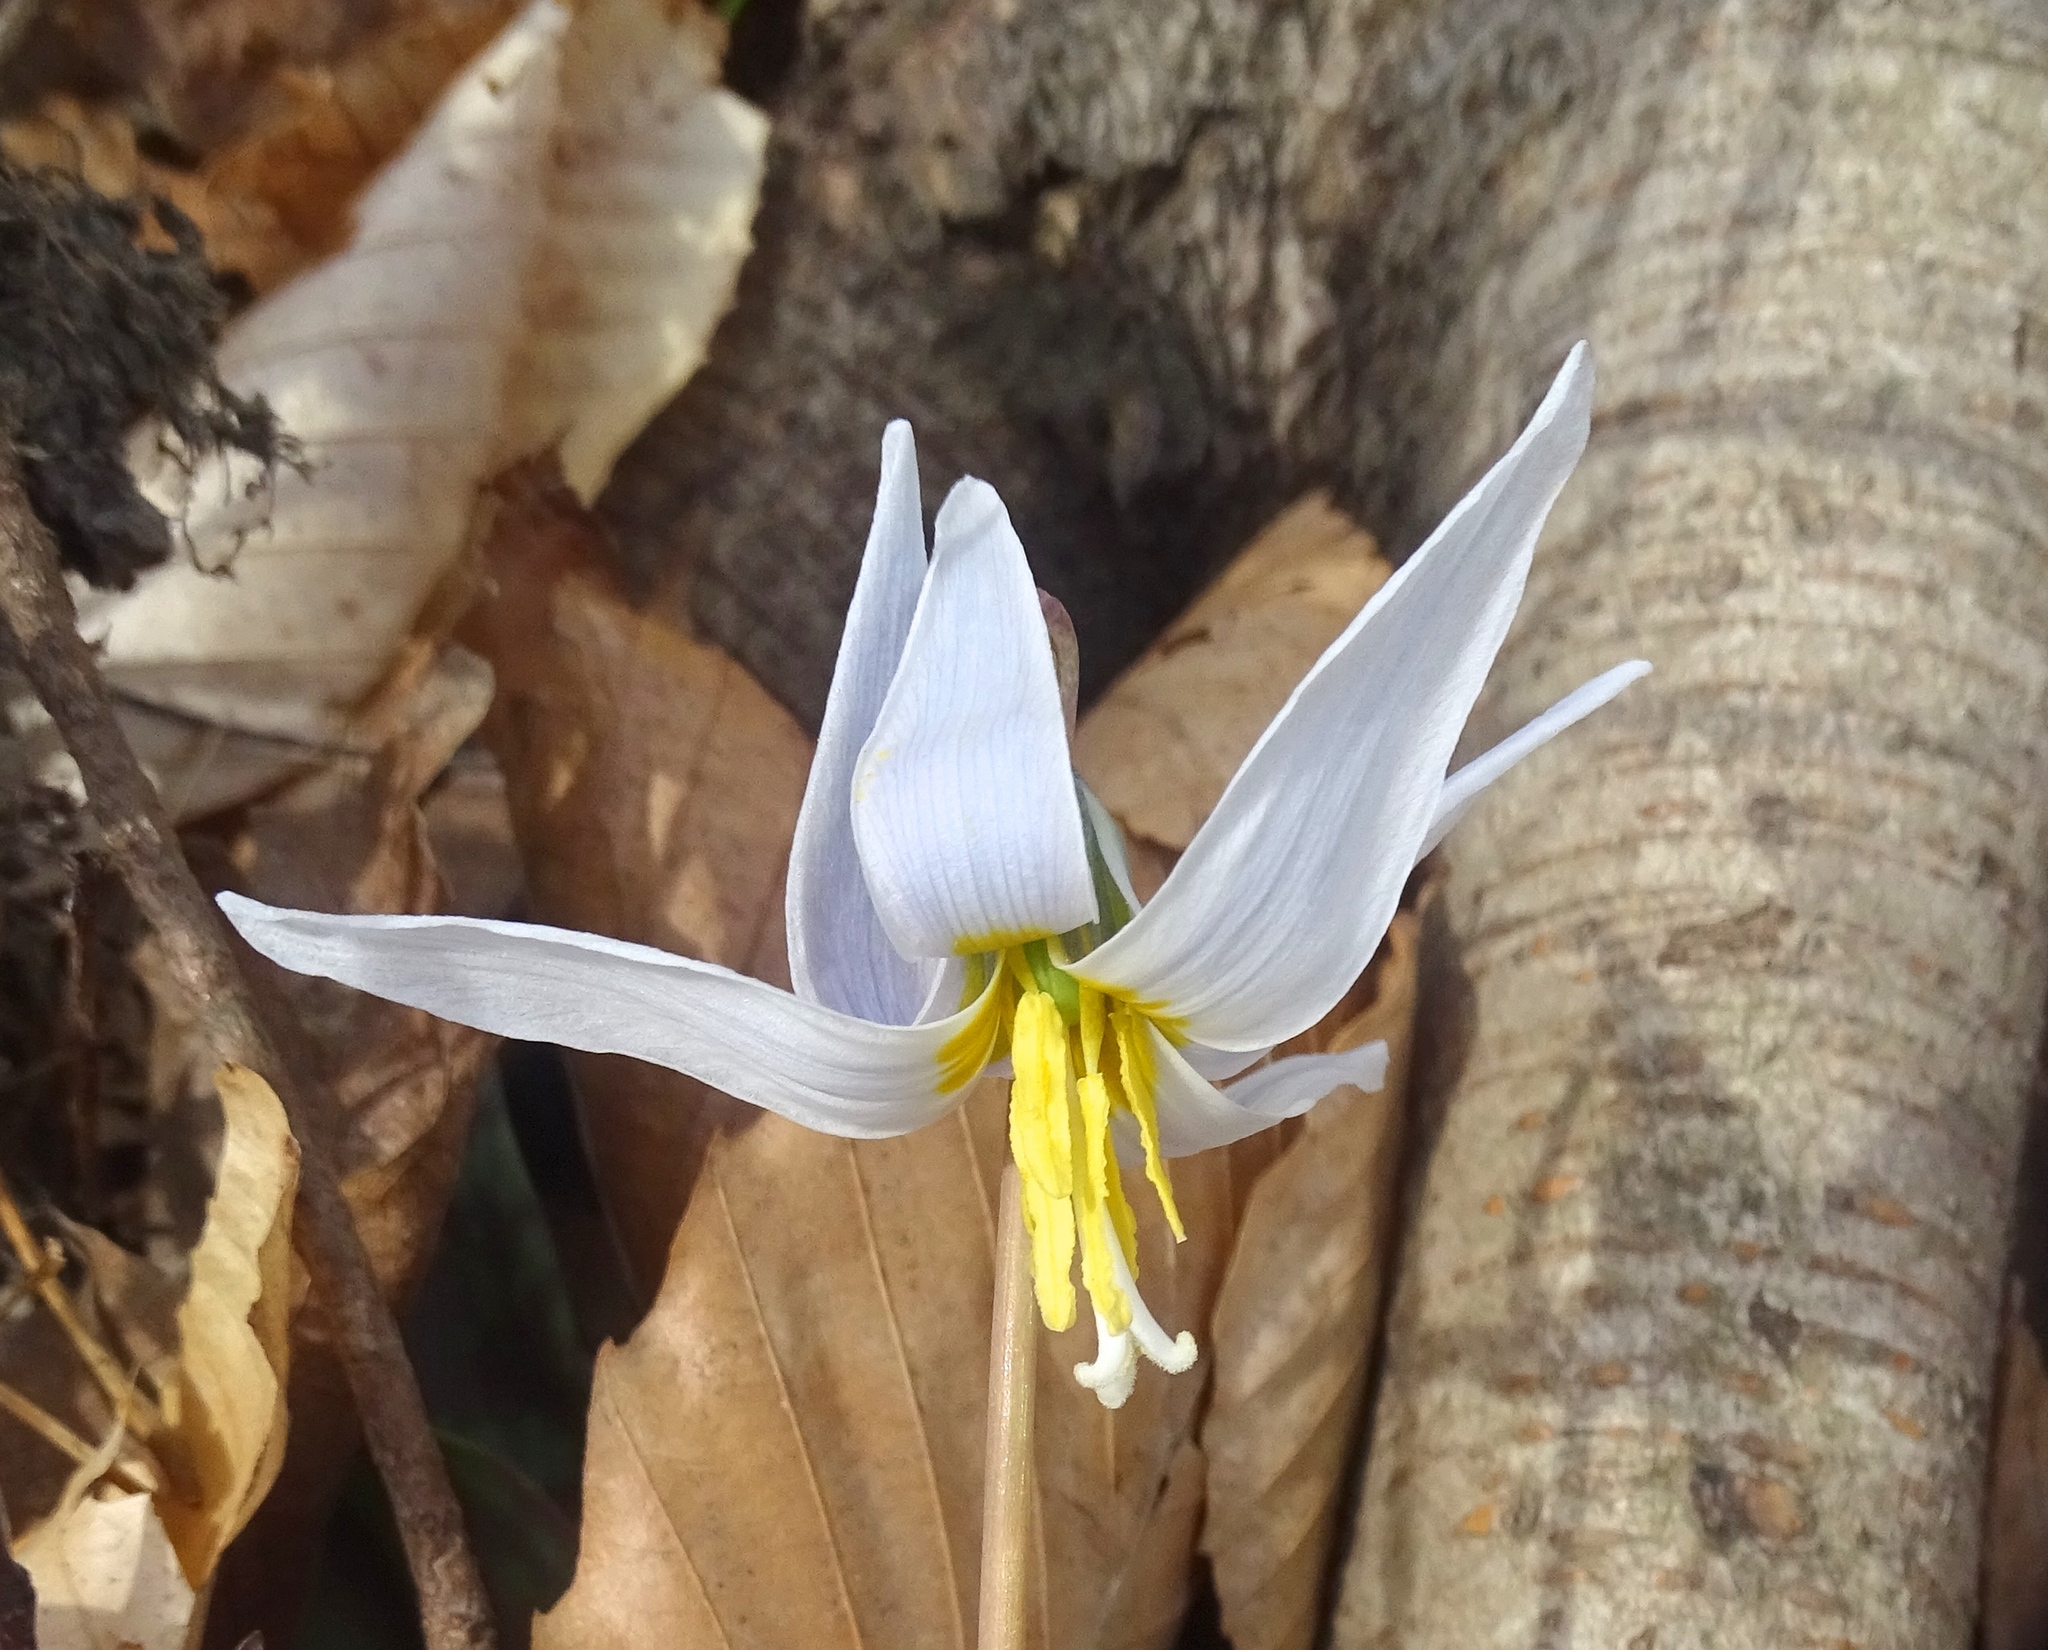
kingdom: Plantae
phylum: Tracheophyta
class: Liliopsida
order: Liliales
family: Liliaceae
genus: Erythronium
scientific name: Erythronium albidum
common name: White trout-lily
